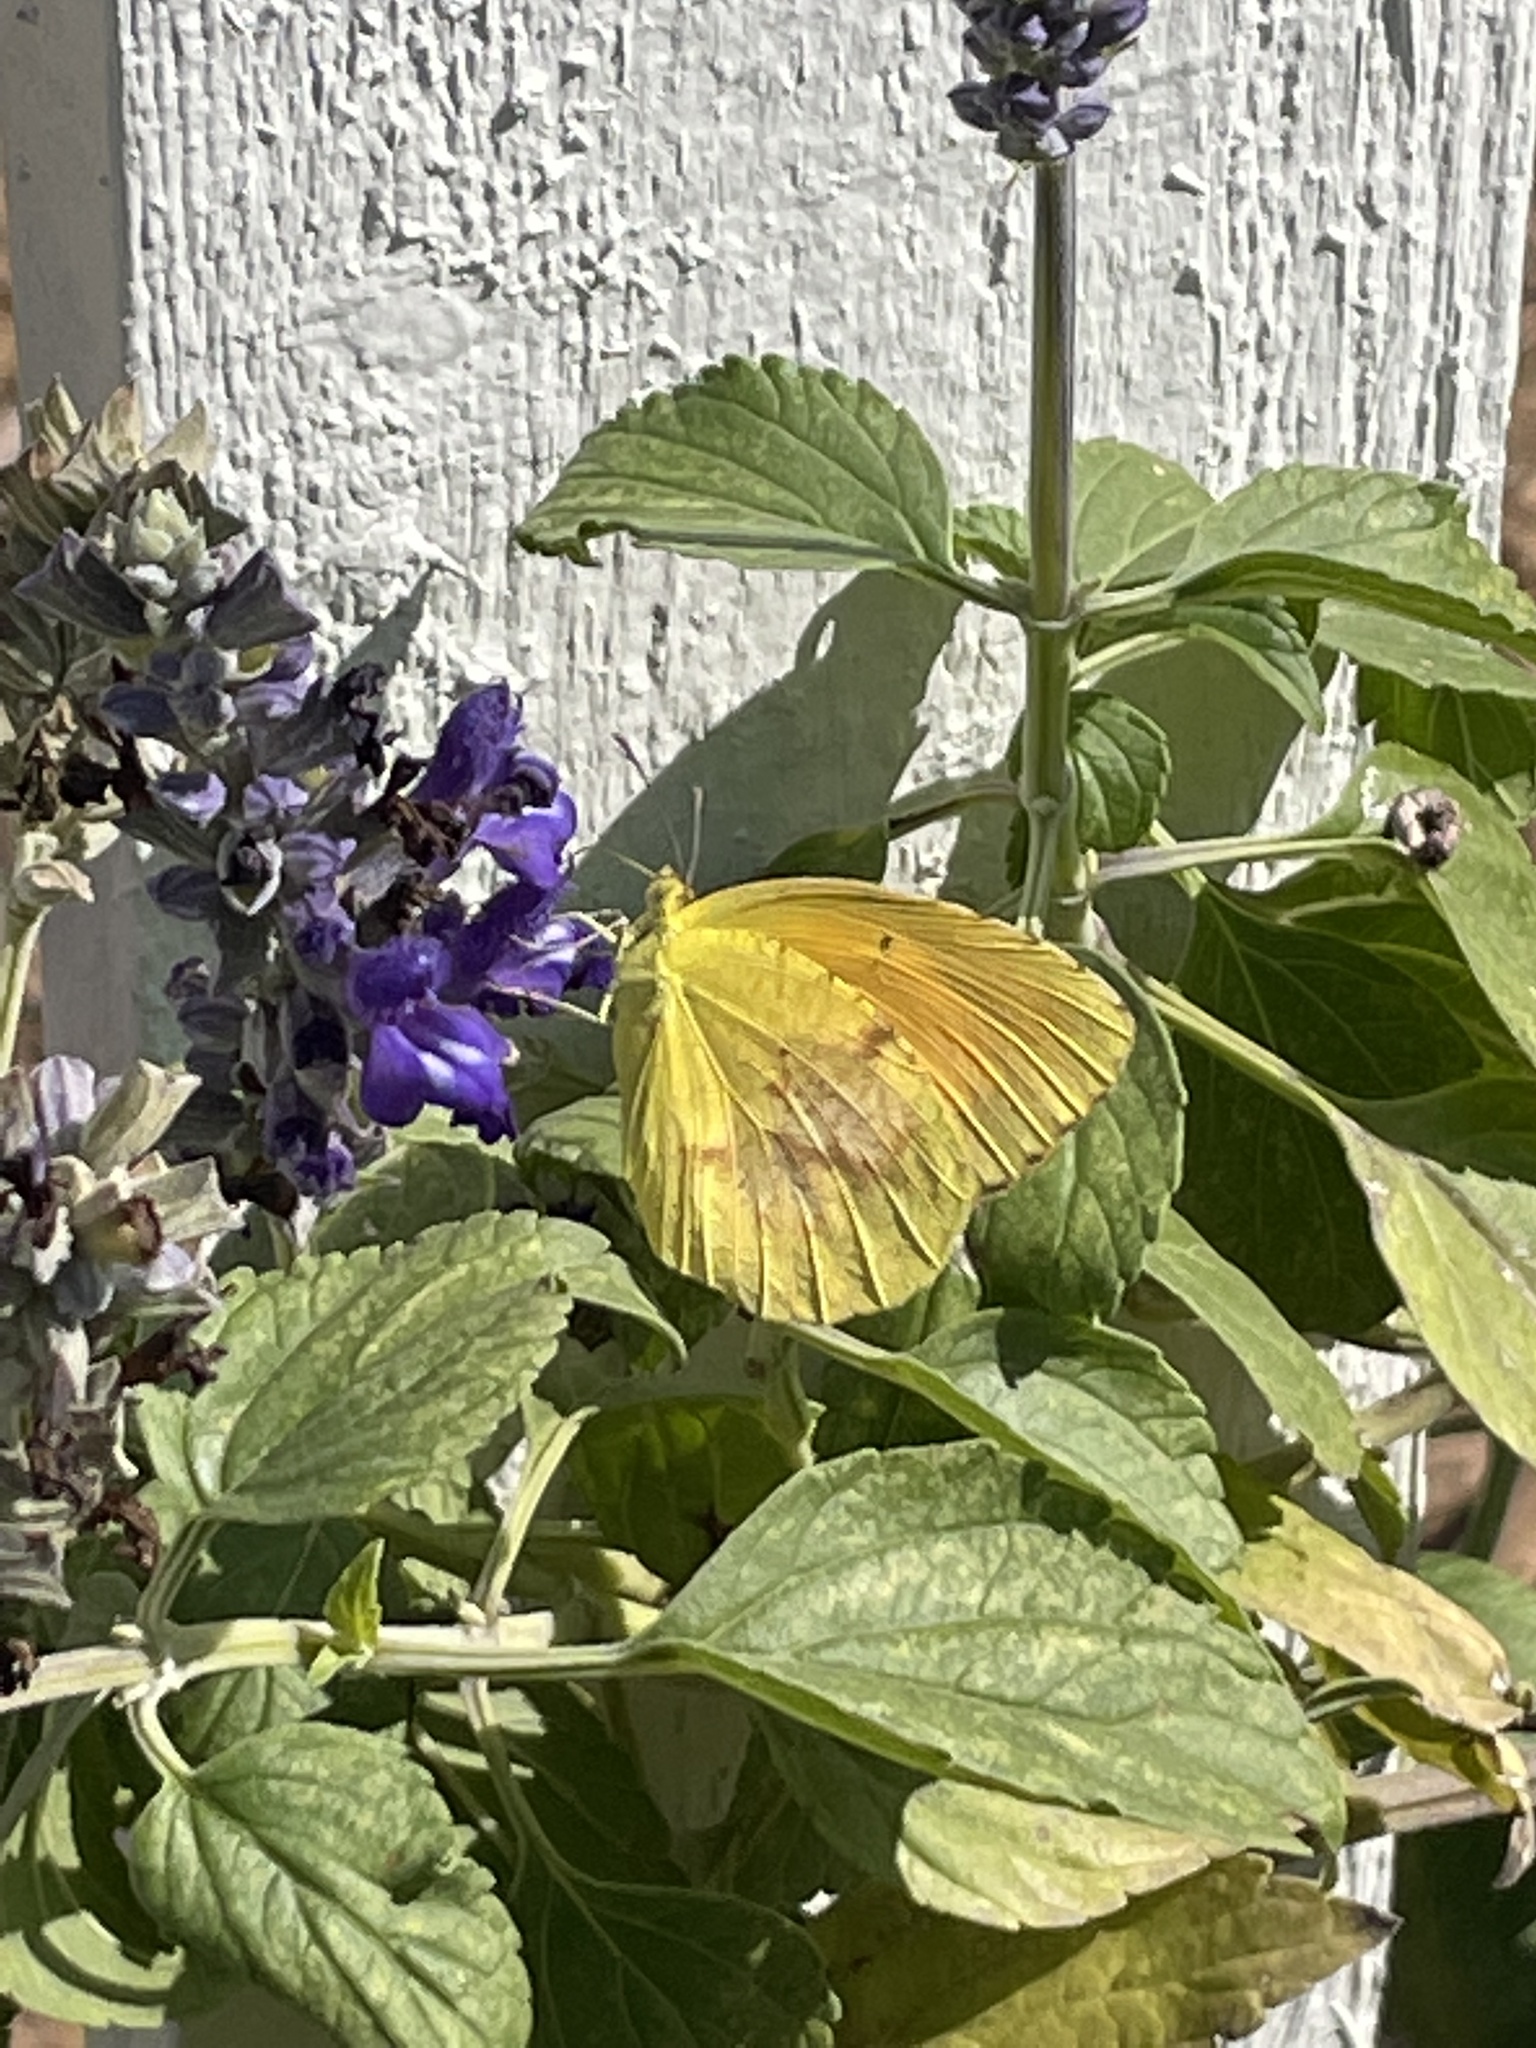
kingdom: Animalia
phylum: Arthropoda
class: Insecta
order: Lepidoptera
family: Pieridae
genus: Abaeis
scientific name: Abaeis nicippe
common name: Sleepy orange
